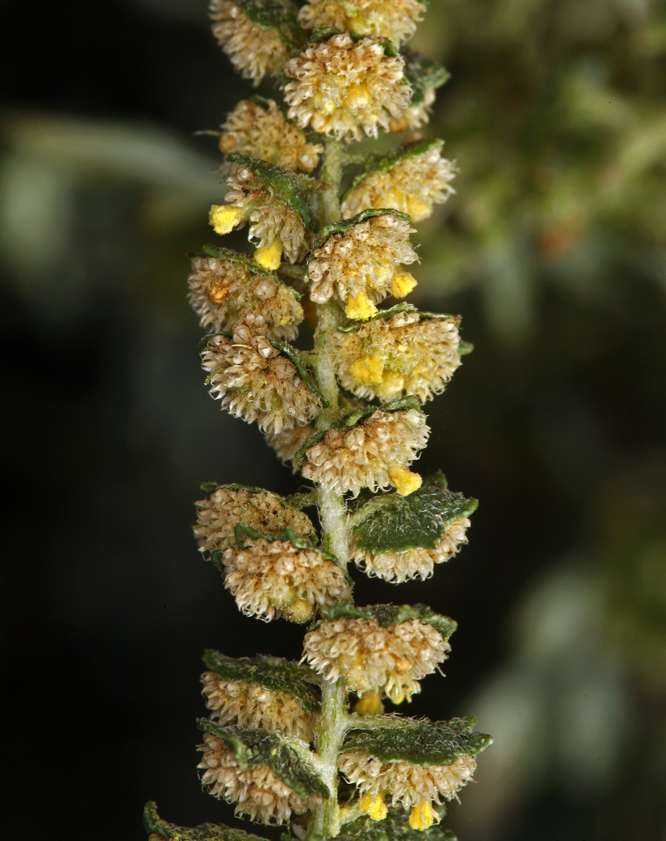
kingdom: Plantae
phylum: Tracheophyta
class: Magnoliopsida
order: Asterales
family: Asteraceae
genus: Ambrosia
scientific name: Ambrosia acanthicarpa
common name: Hooker's bur ragweed
